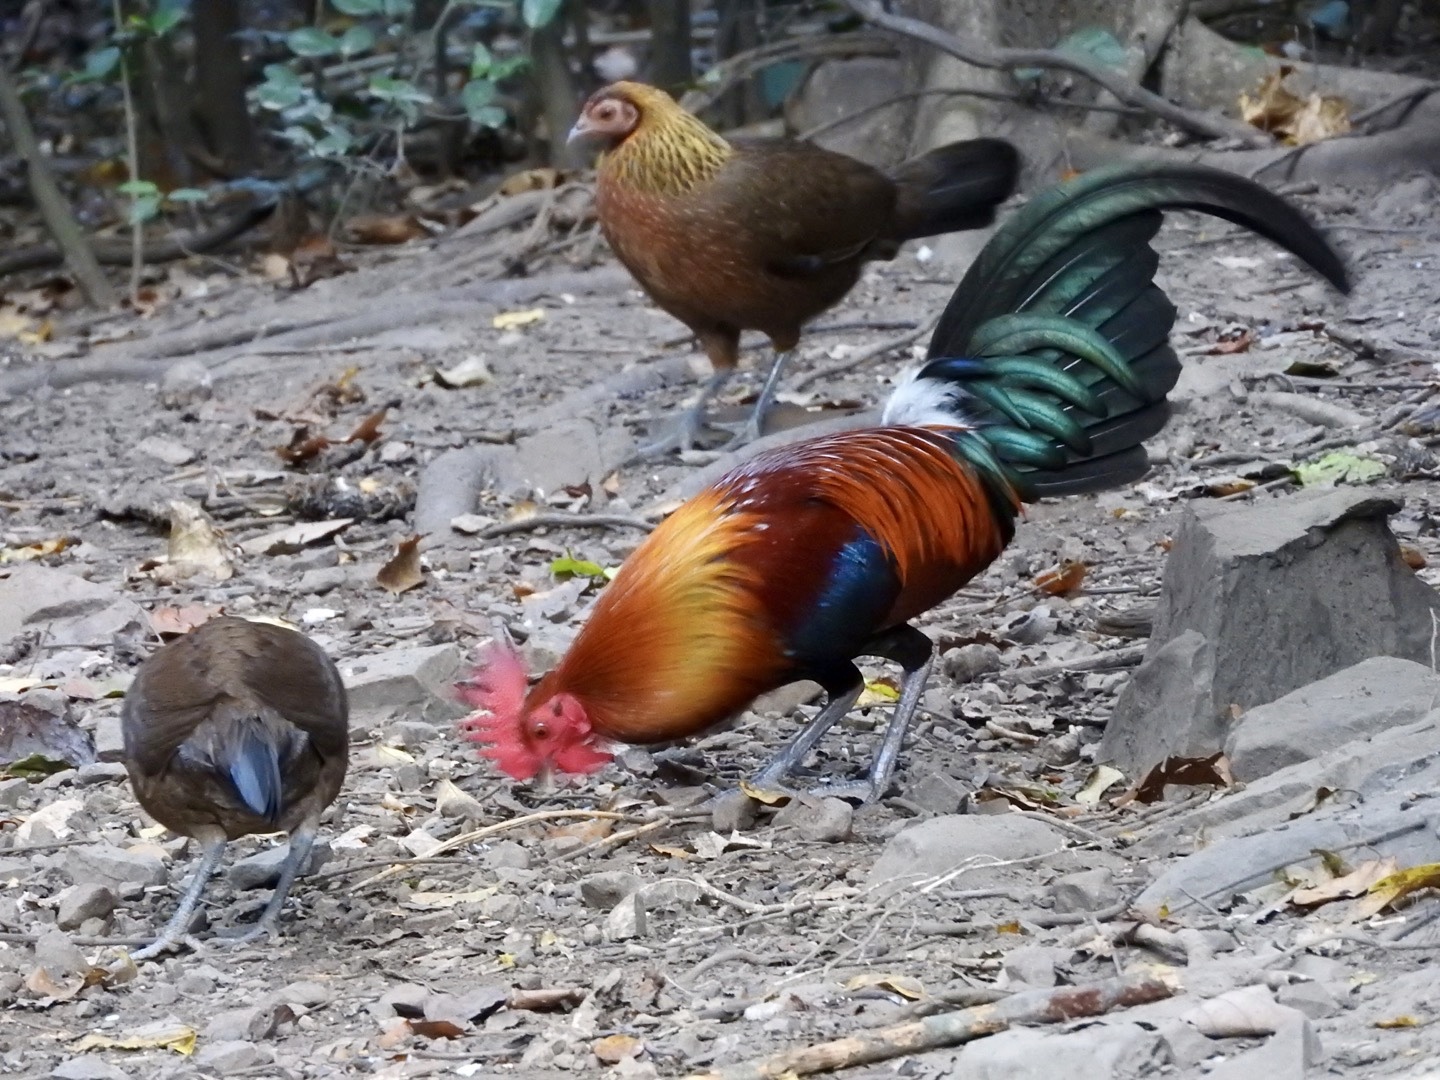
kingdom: Animalia
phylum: Chordata
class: Aves
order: Galliformes
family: Phasianidae
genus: Gallus
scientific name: Gallus gallus
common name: Red junglefowl
